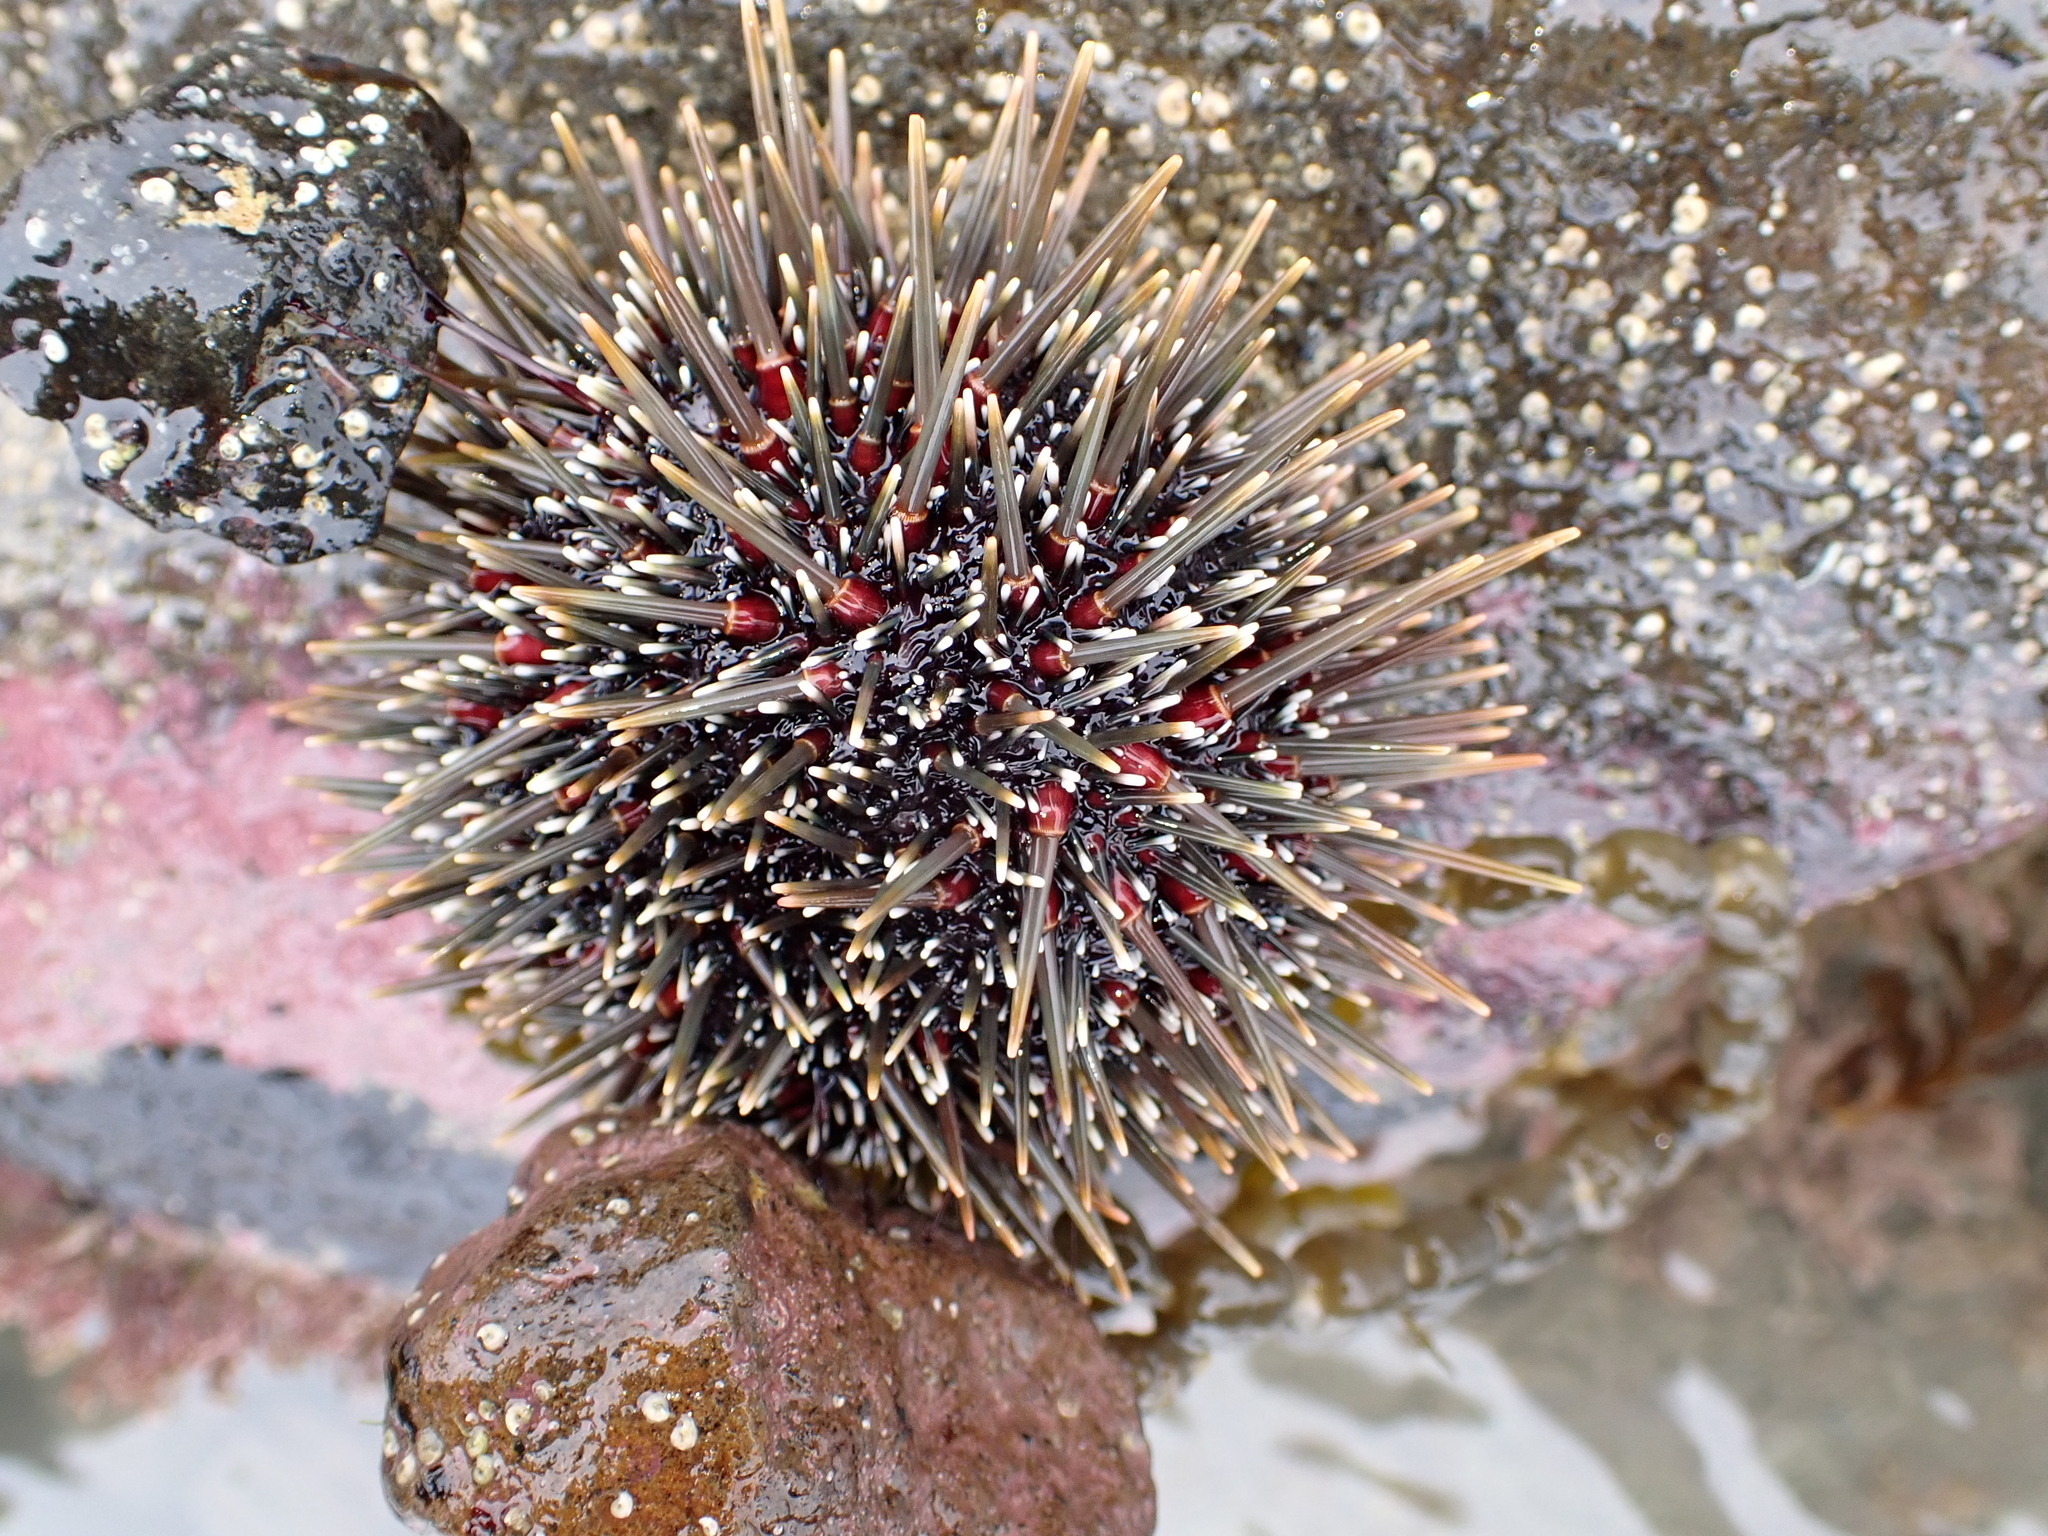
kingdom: Animalia
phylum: Echinodermata
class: Echinoidea
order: Camarodonta
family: Echinometridae
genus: Evechinus
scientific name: Evechinus chloroticus
